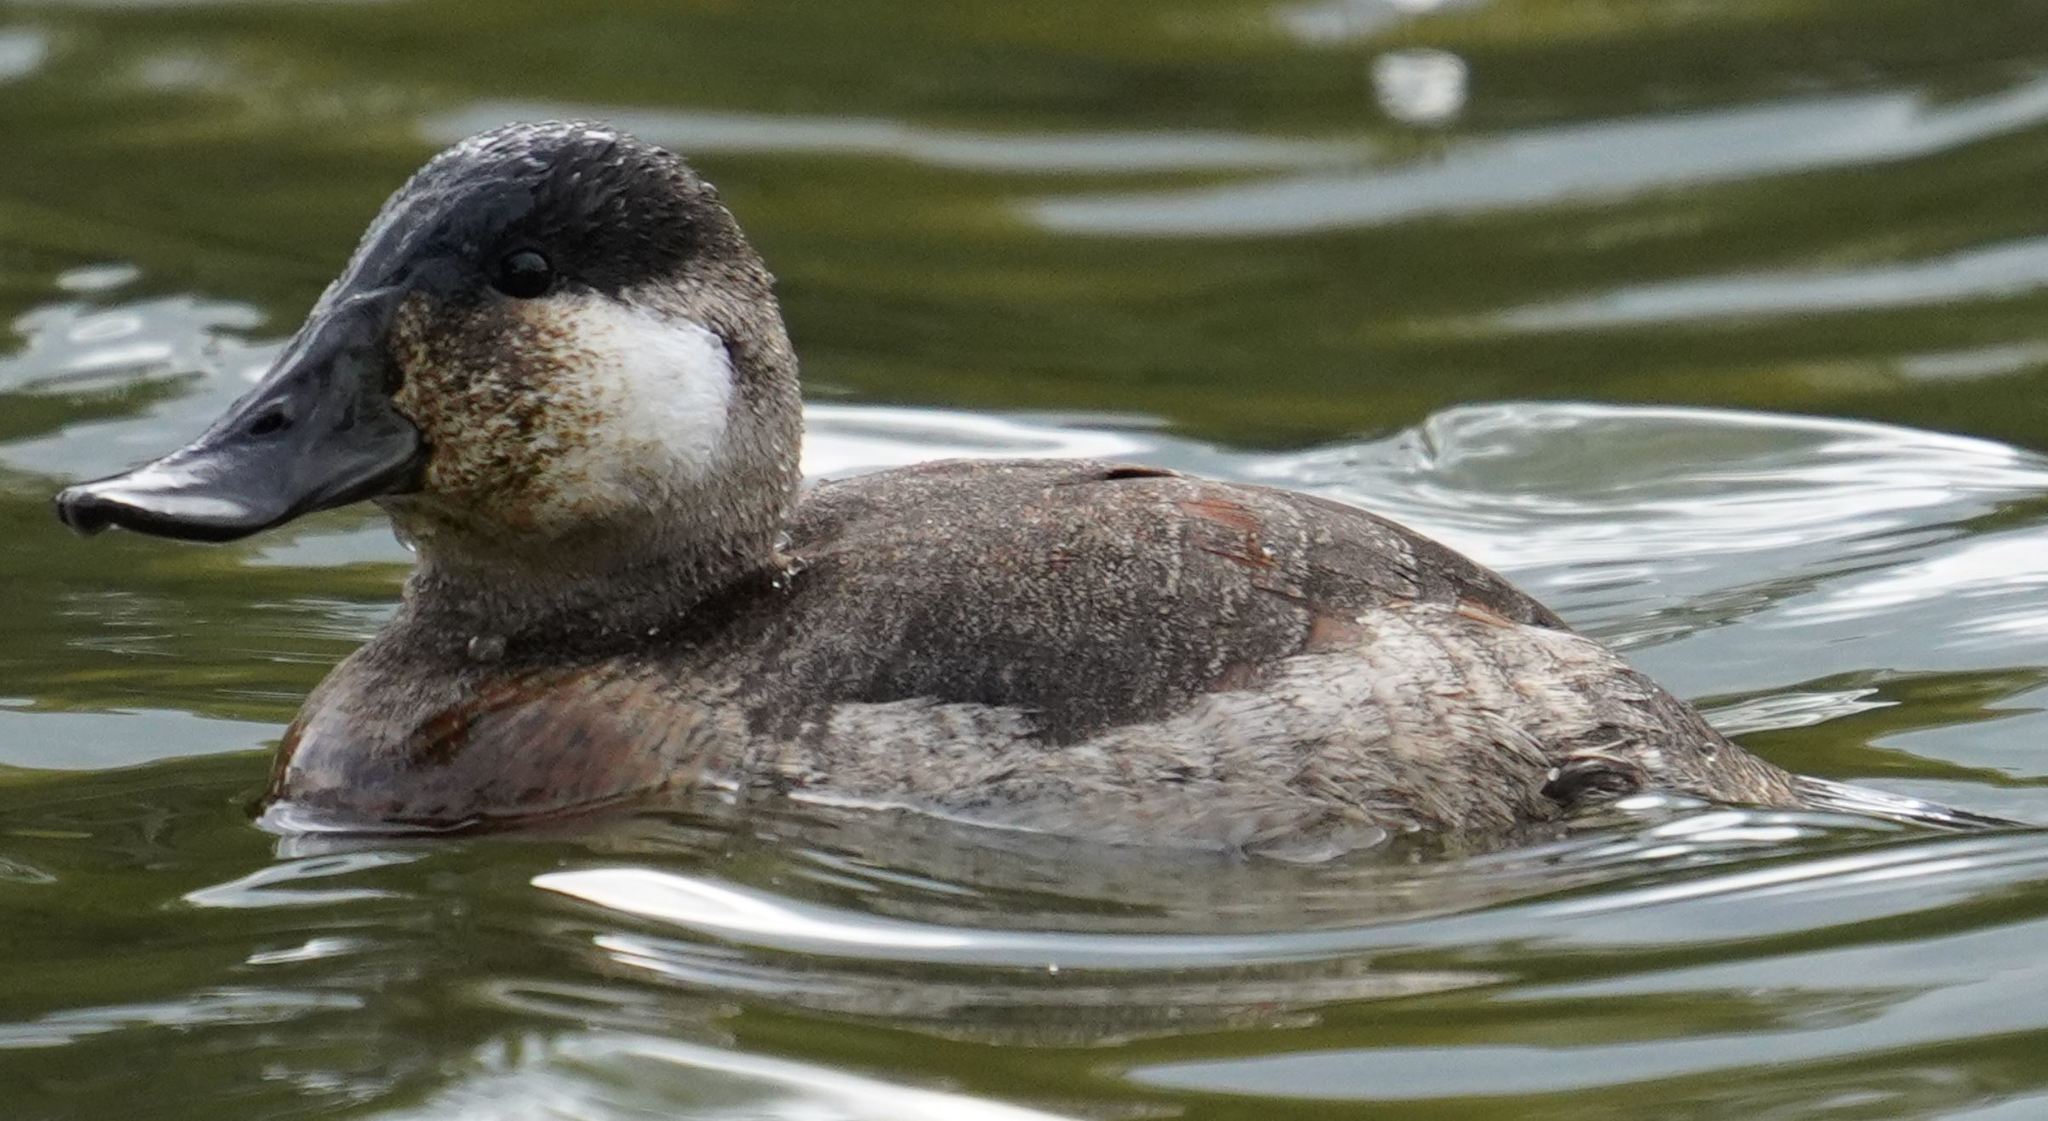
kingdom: Animalia
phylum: Chordata
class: Aves
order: Anseriformes
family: Anatidae
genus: Oxyura
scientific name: Oxyura jamaicensis
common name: Ruddy duck
